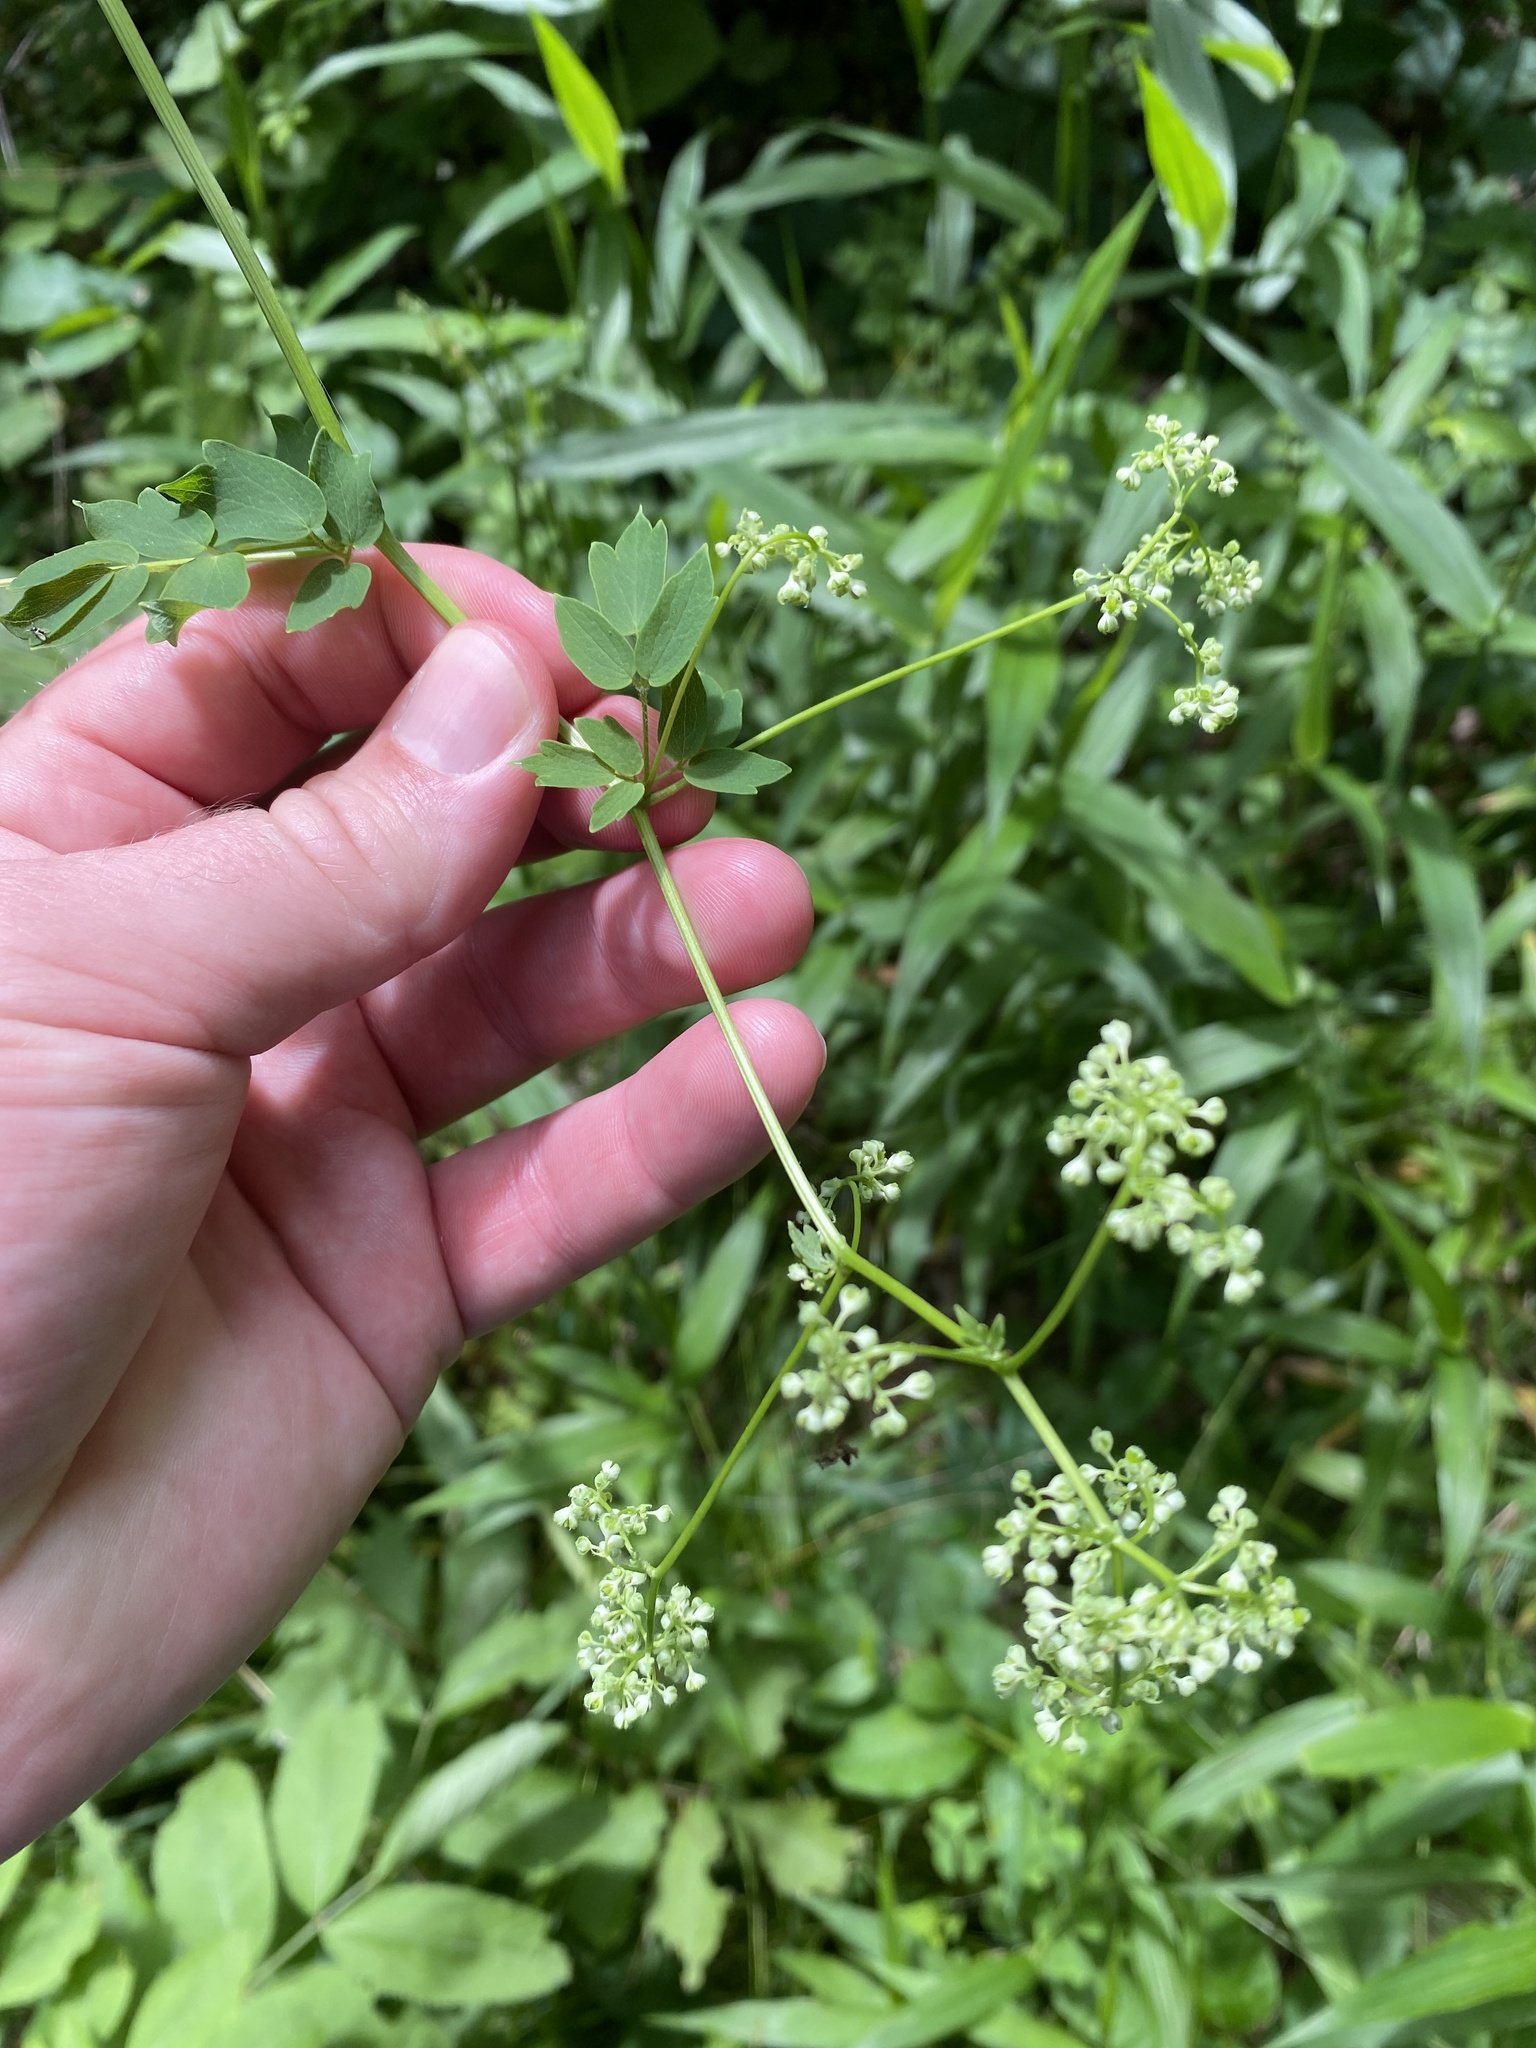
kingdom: Plantae
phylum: Tracheophyta
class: Magnoliopsida
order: Ranunculales
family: Ranunculaceae
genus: Thalictrum
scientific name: Thalictrum pubescens
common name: King-of-the-meadow
